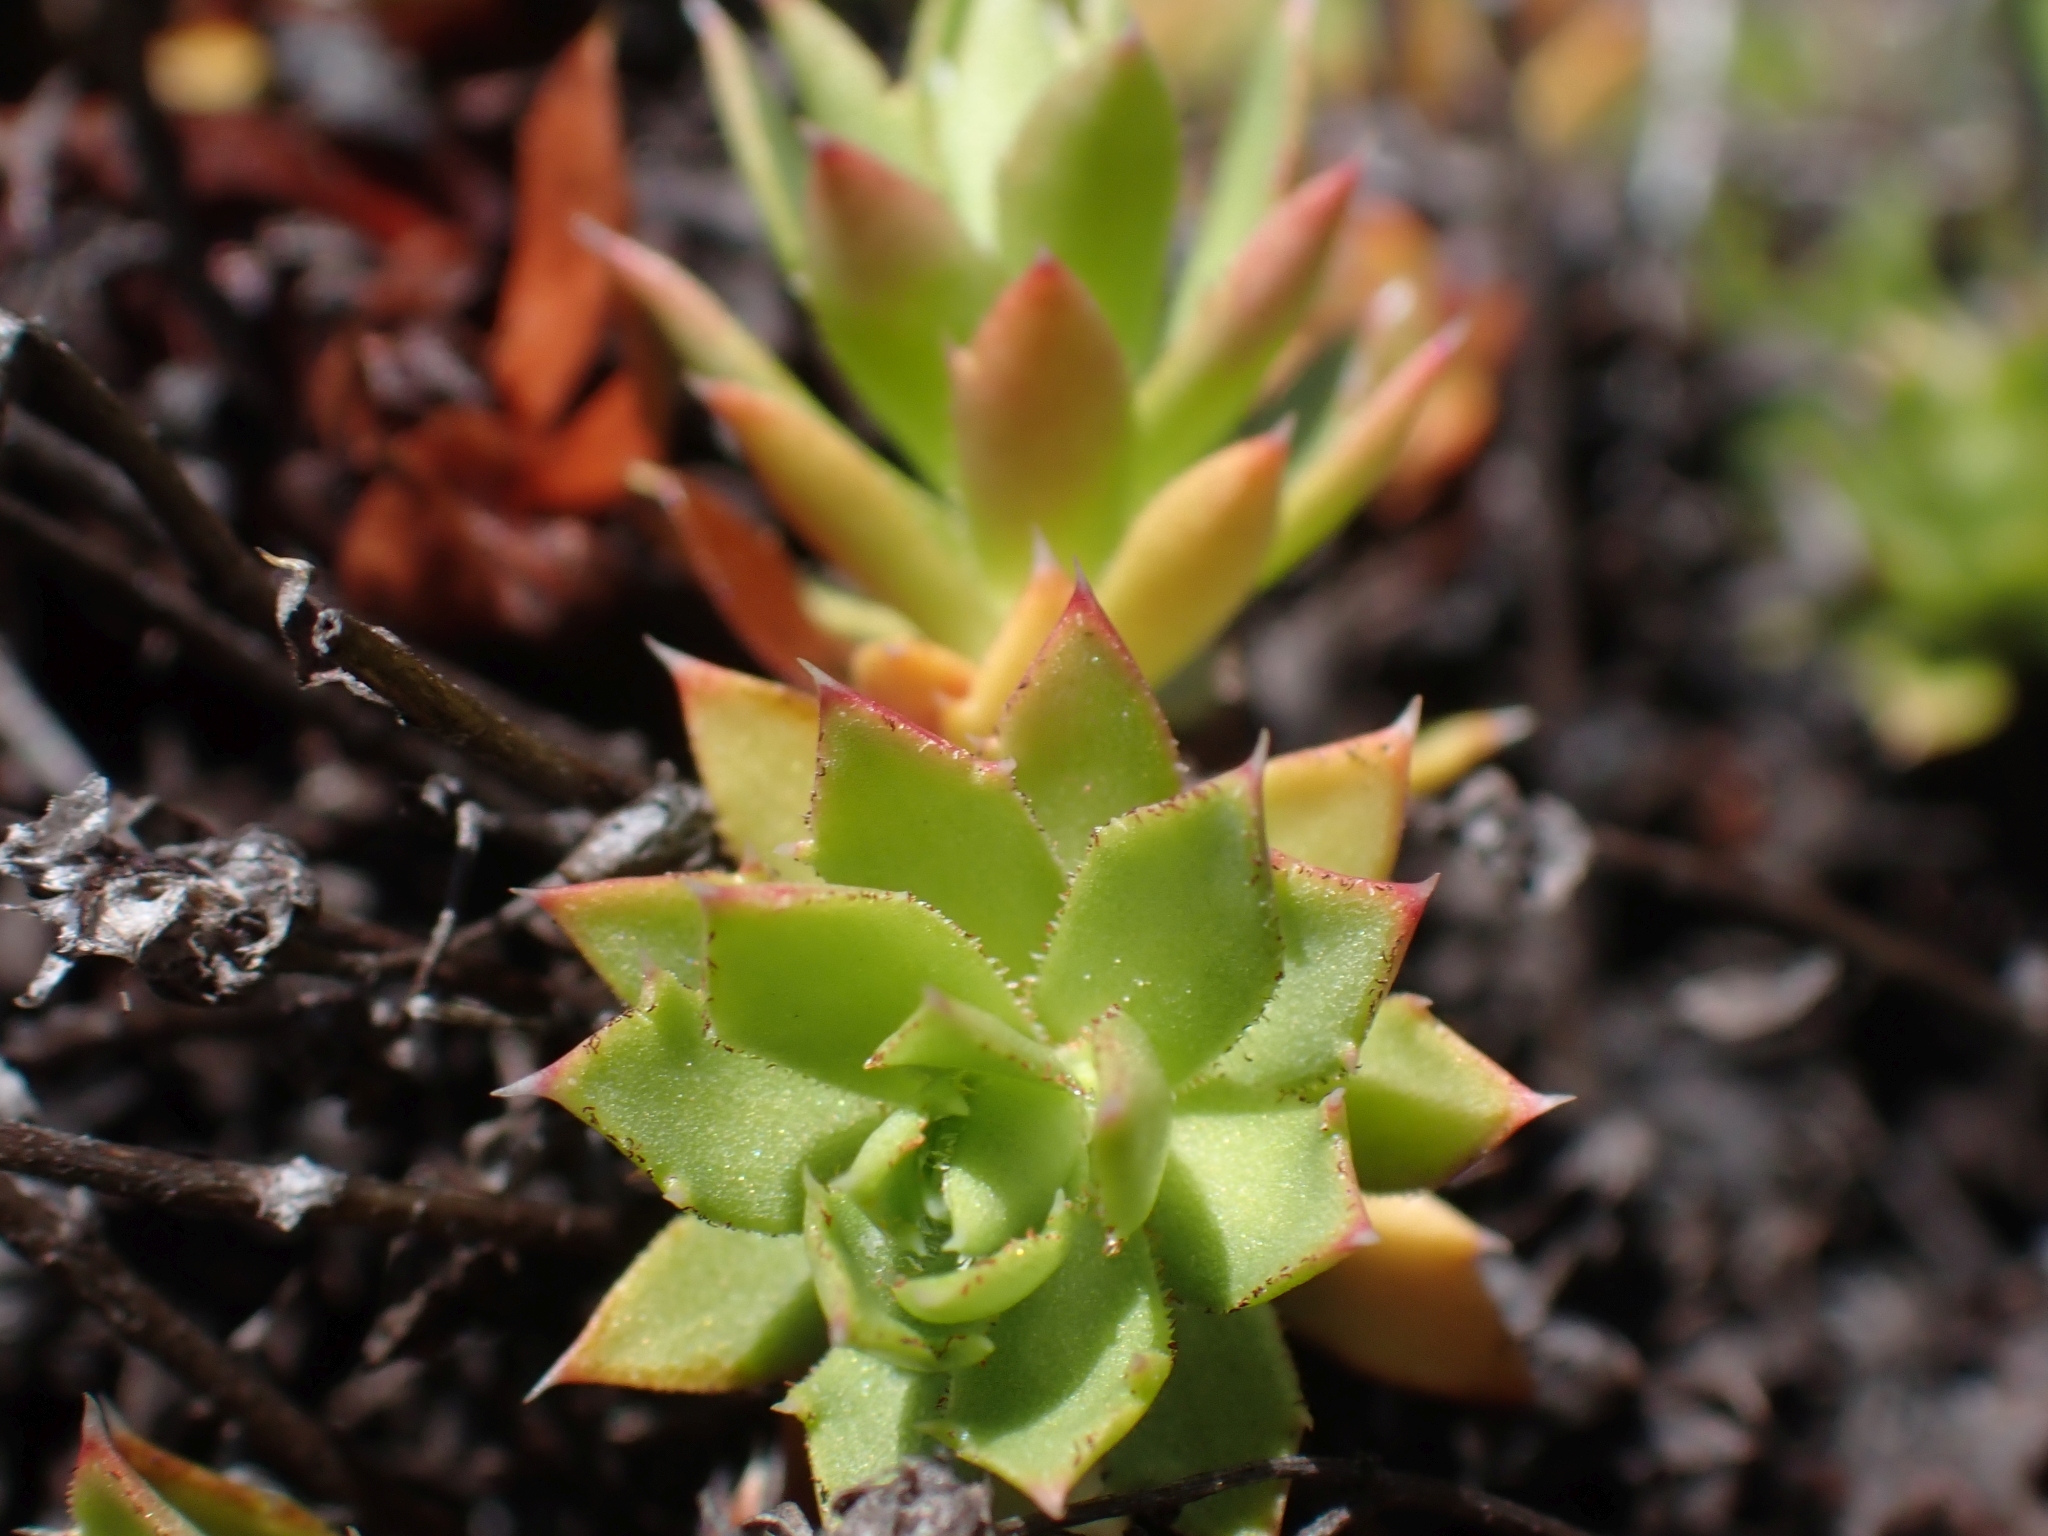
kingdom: Plantae
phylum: Tracheophyta
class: Magnoliopsida
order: Saxifragales
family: Saxifragaceae
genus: Saxifraga
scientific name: Saxifraga tricuspidata
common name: Prickly saxifrage
